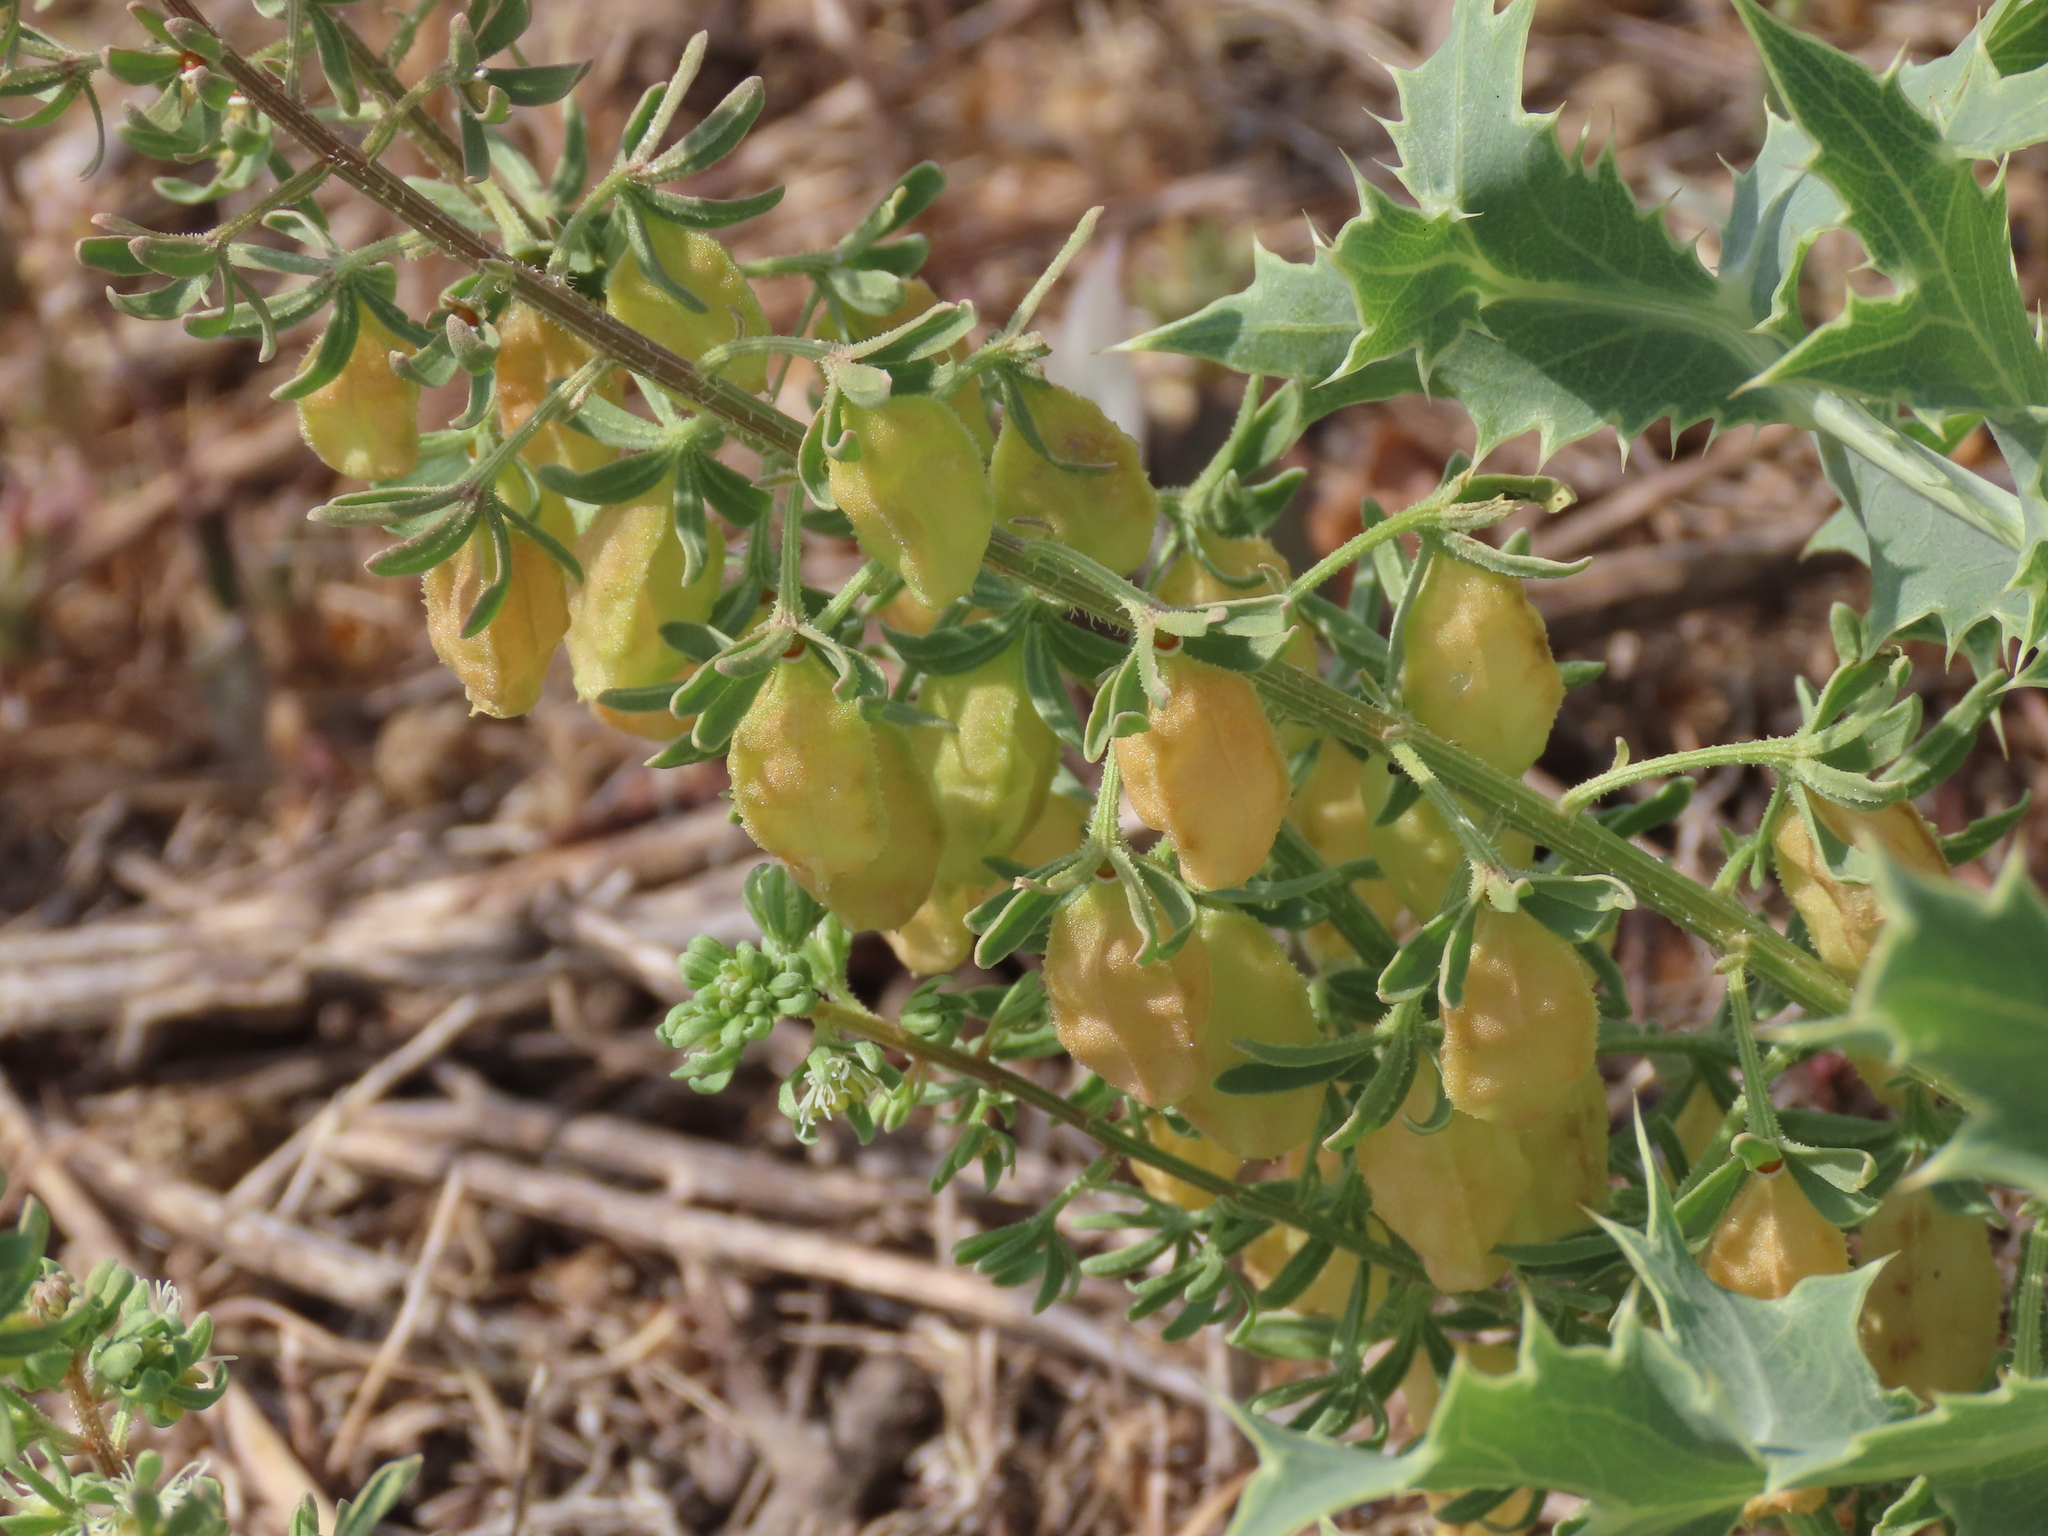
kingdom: Plantae
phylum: Tracheophyta
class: Magnoliopsida
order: Brassicales
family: Resedaceae
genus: Reseda
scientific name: Reseda phyteuma
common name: Corn mignonette
